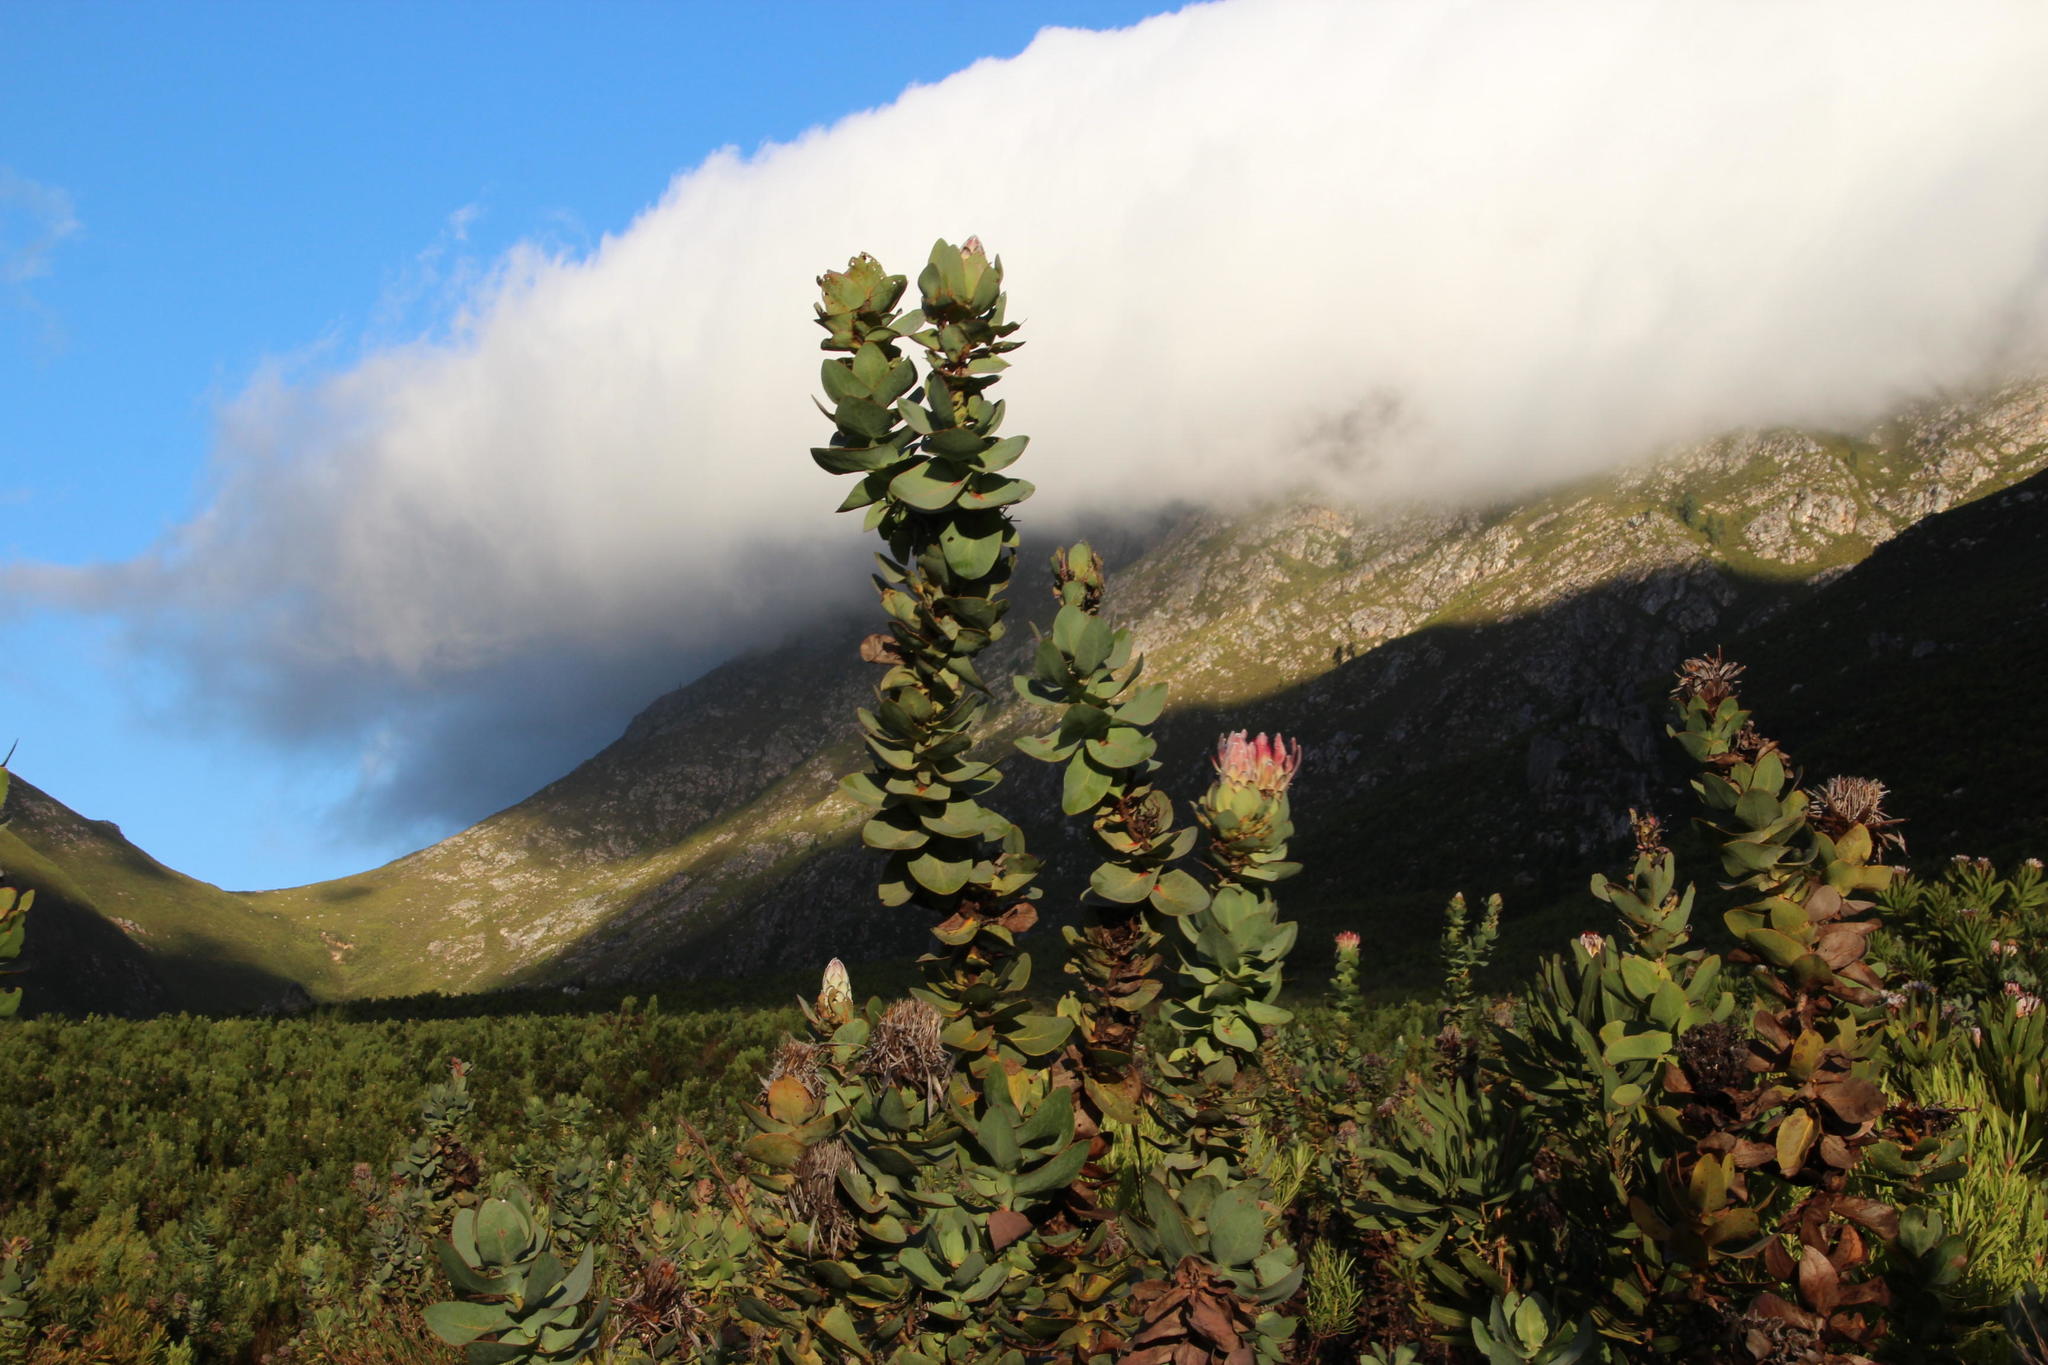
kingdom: Plantae
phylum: Tracheophyta
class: Magnoliopsida
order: Proteales
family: Proteaceae
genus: Protea
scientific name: Protea eximia
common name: Broad-leaved sugarbush
